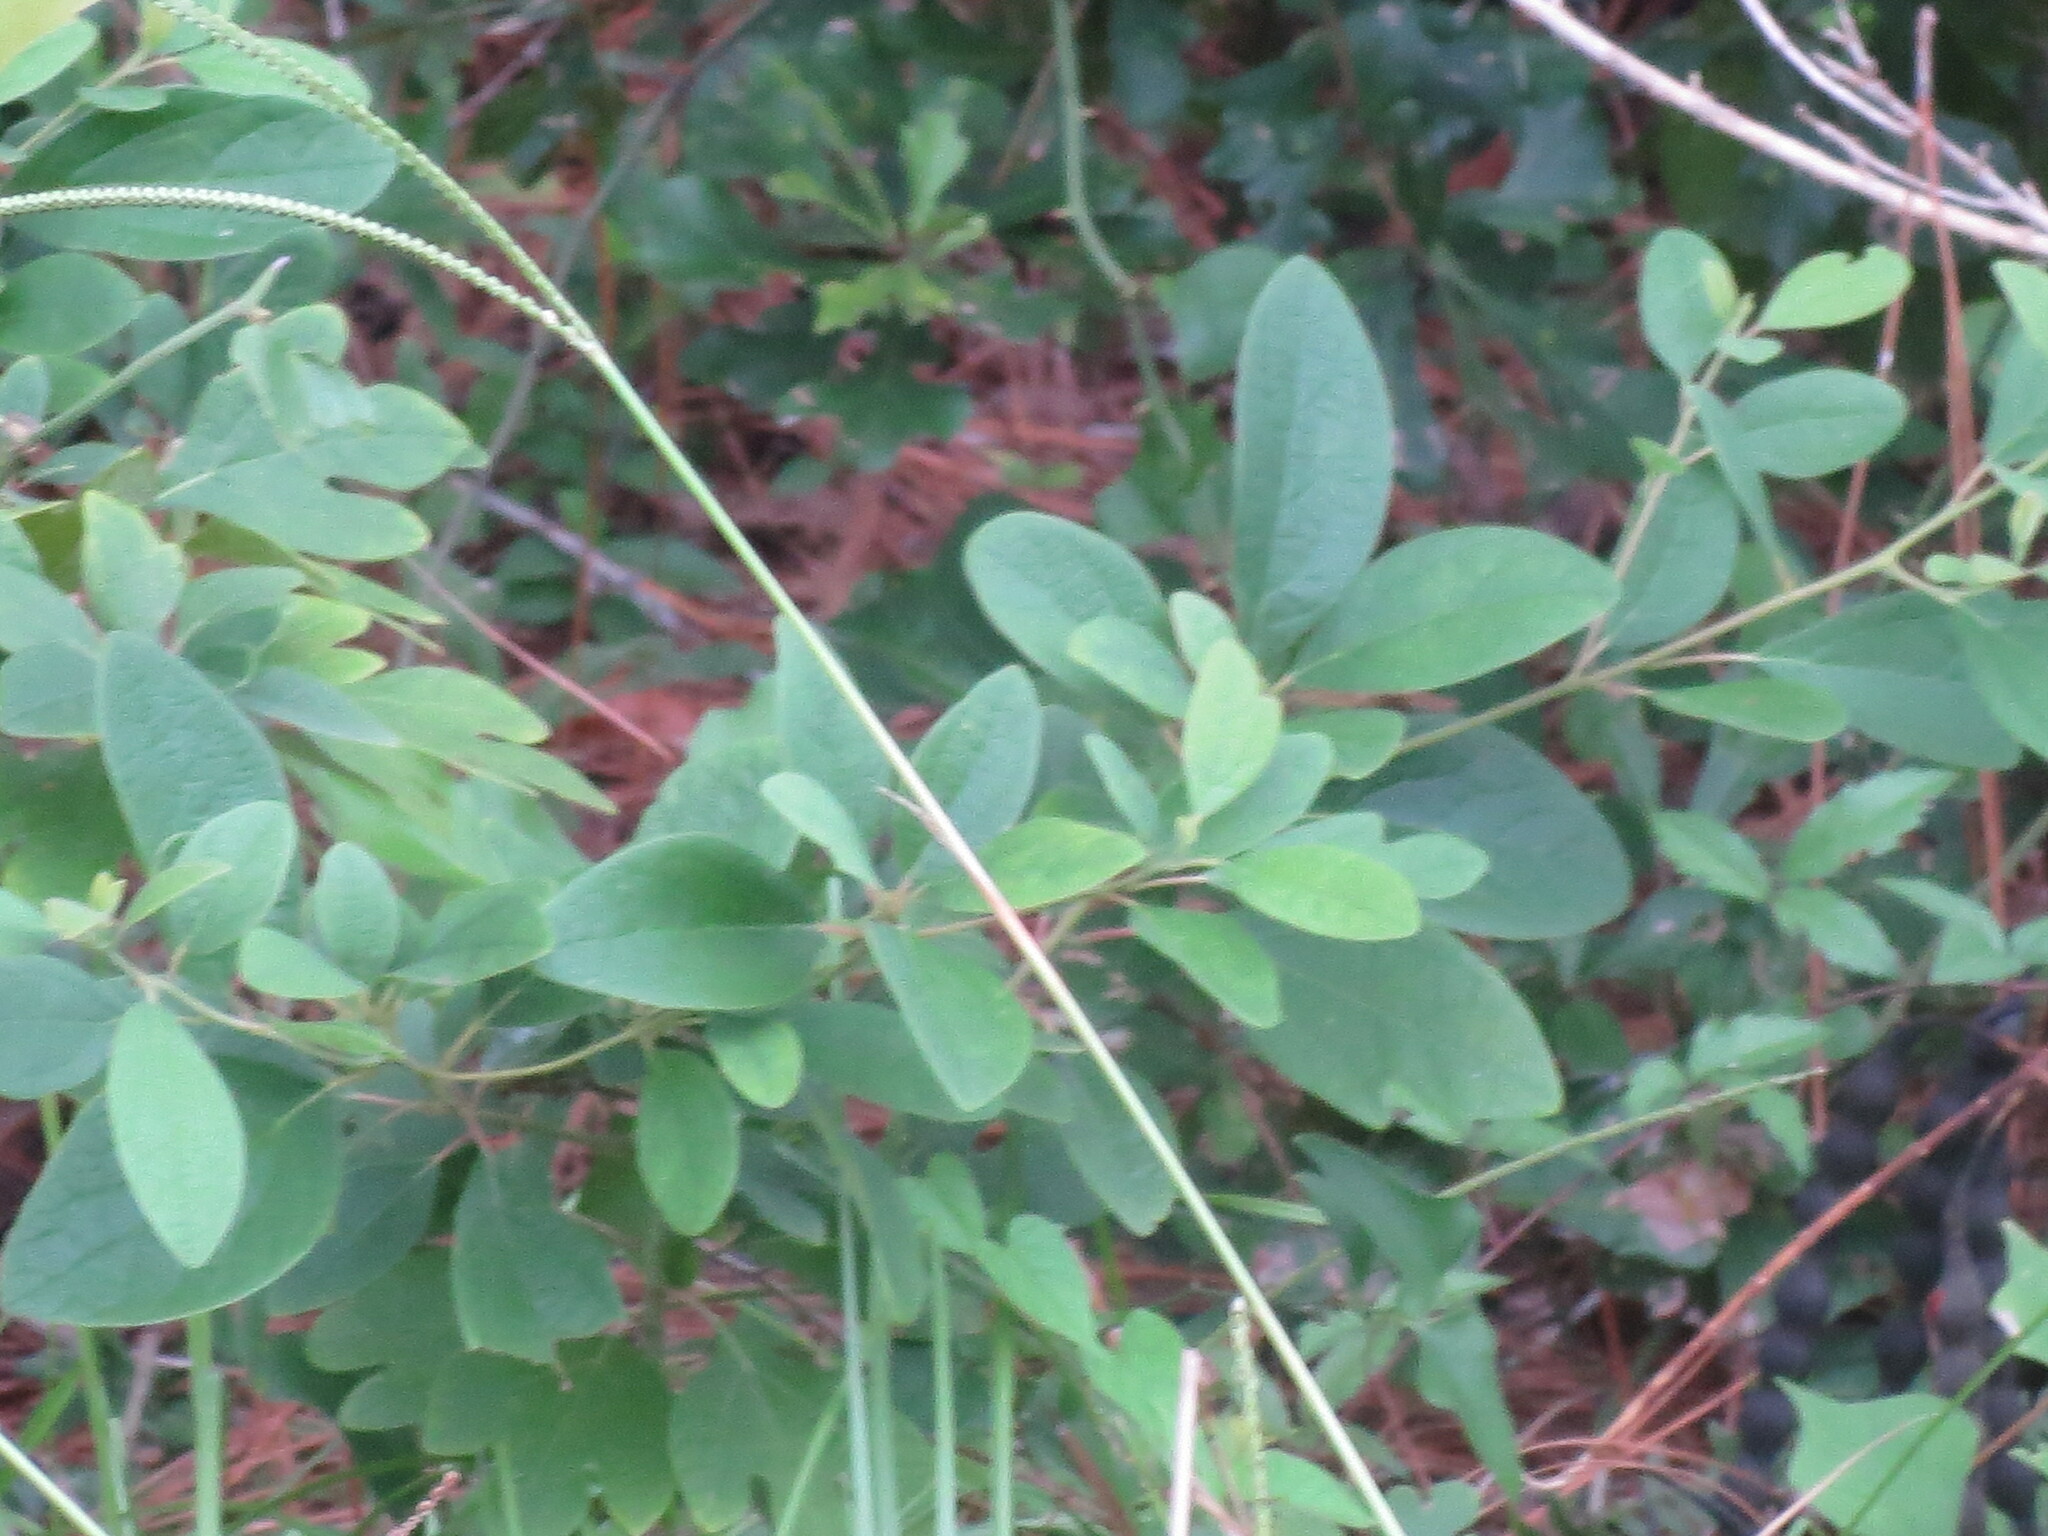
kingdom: Plantae
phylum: Tracheophyta
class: Magnoliopsida
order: Laurales
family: Lauraceae
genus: Sassafras
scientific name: Sassafras albidum
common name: Sassafras
